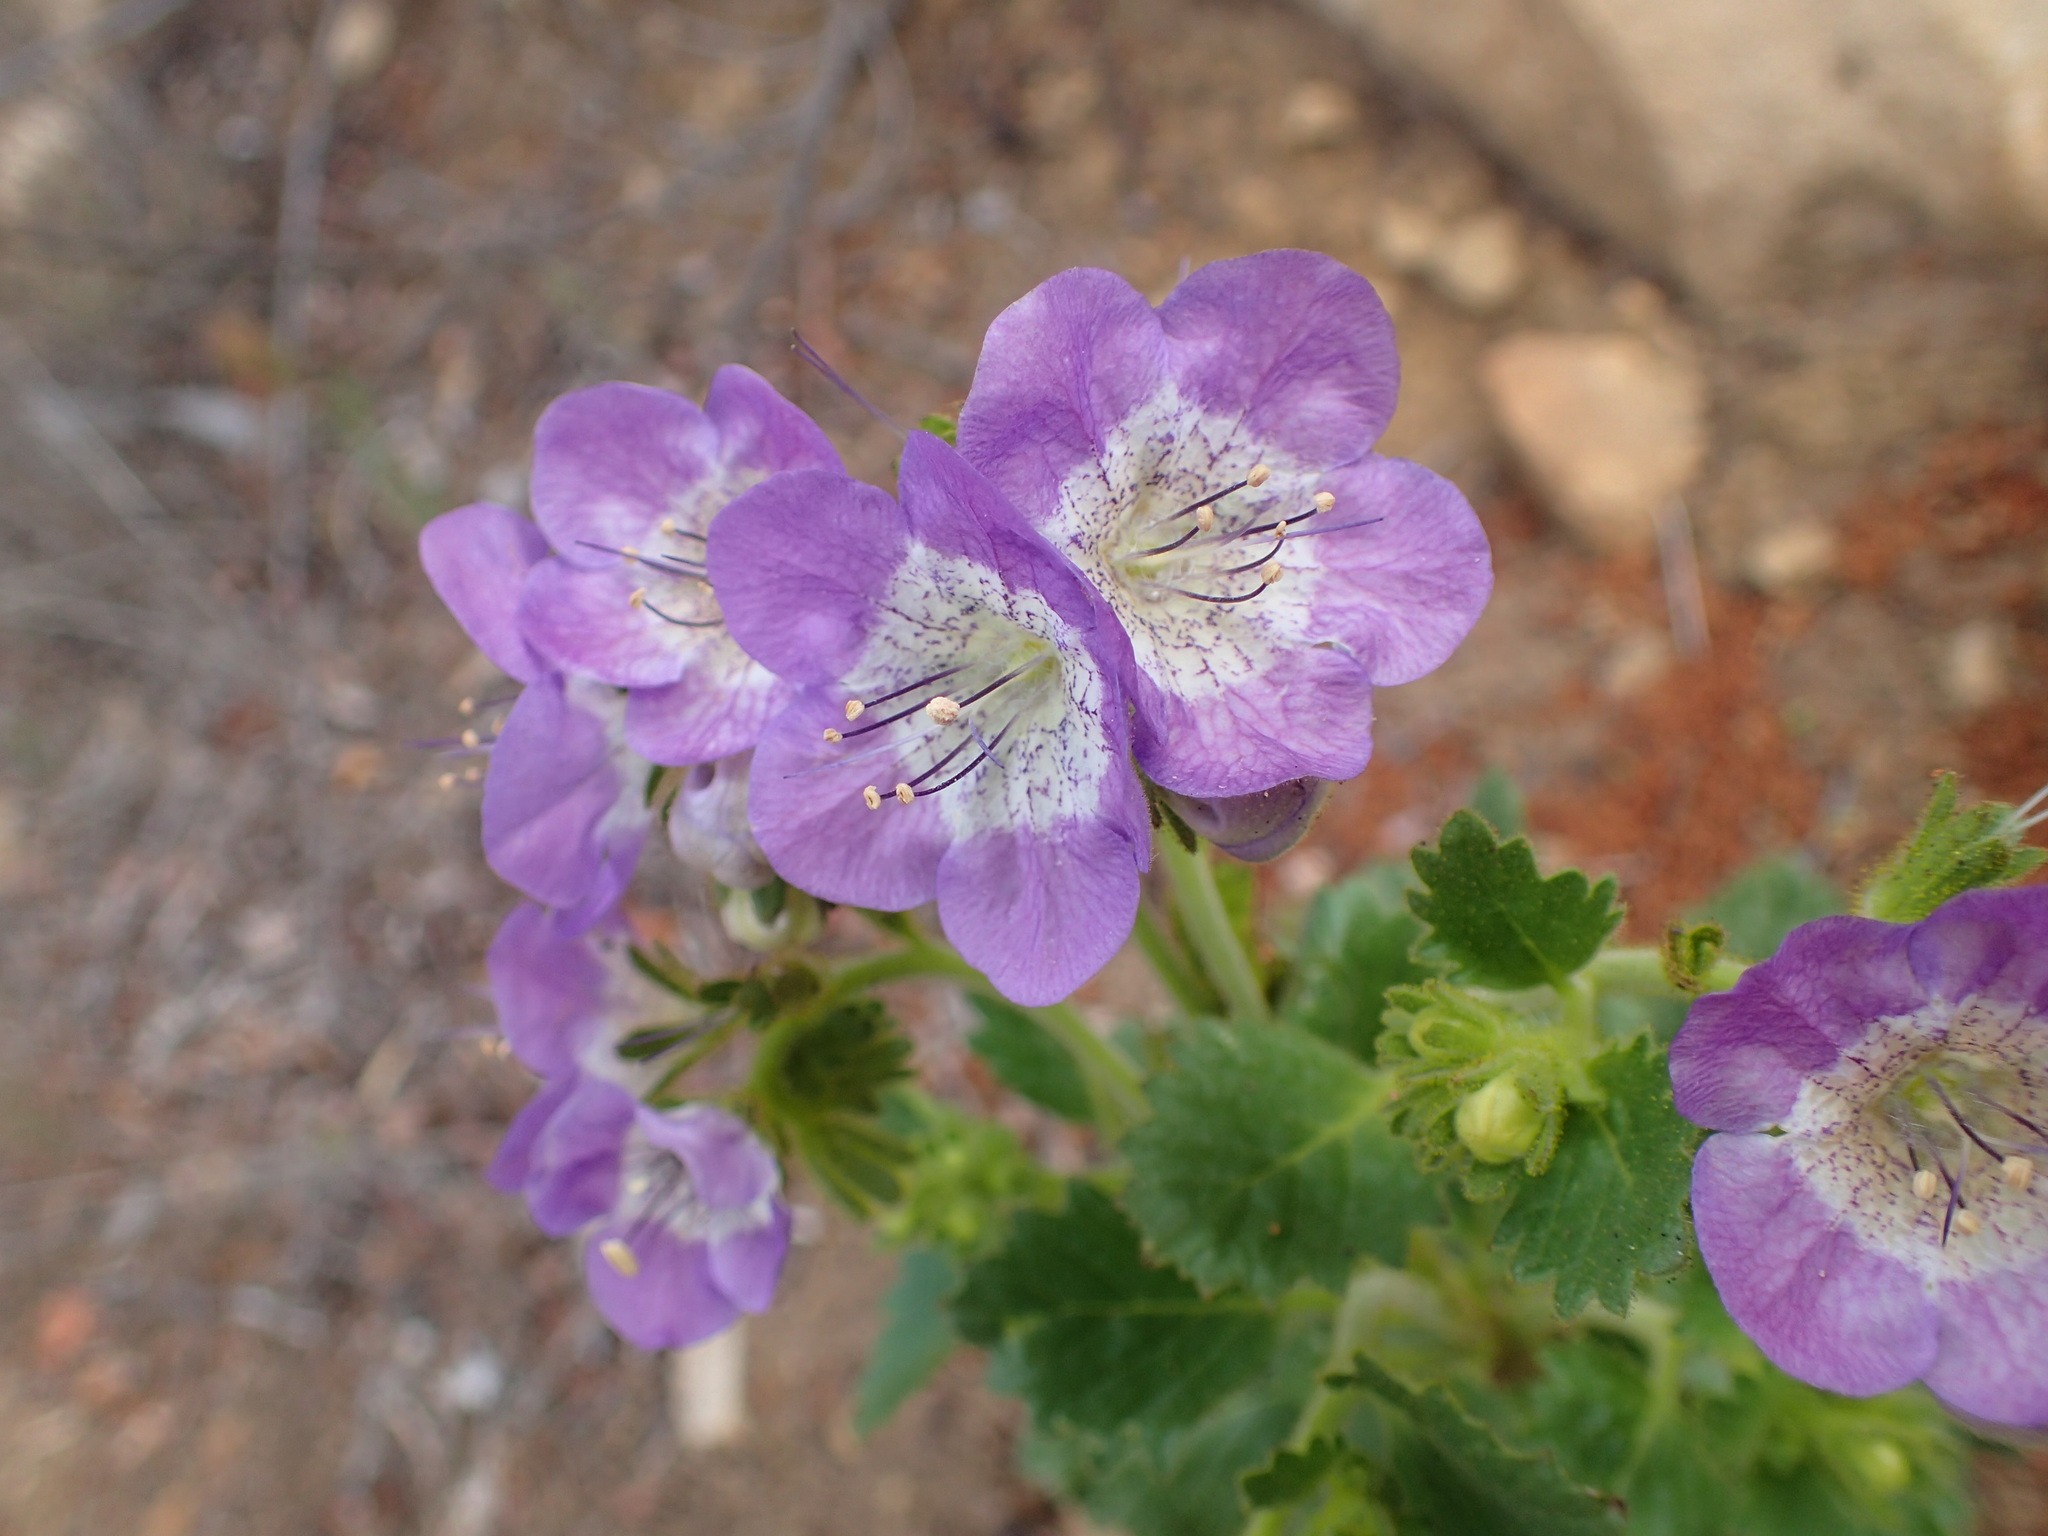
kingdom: Plantae
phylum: Tracheophyta
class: Magnoliopsida
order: Boraginales
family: Hydrophyllaceae
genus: Phacelia
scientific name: Phacelia grandiflora
